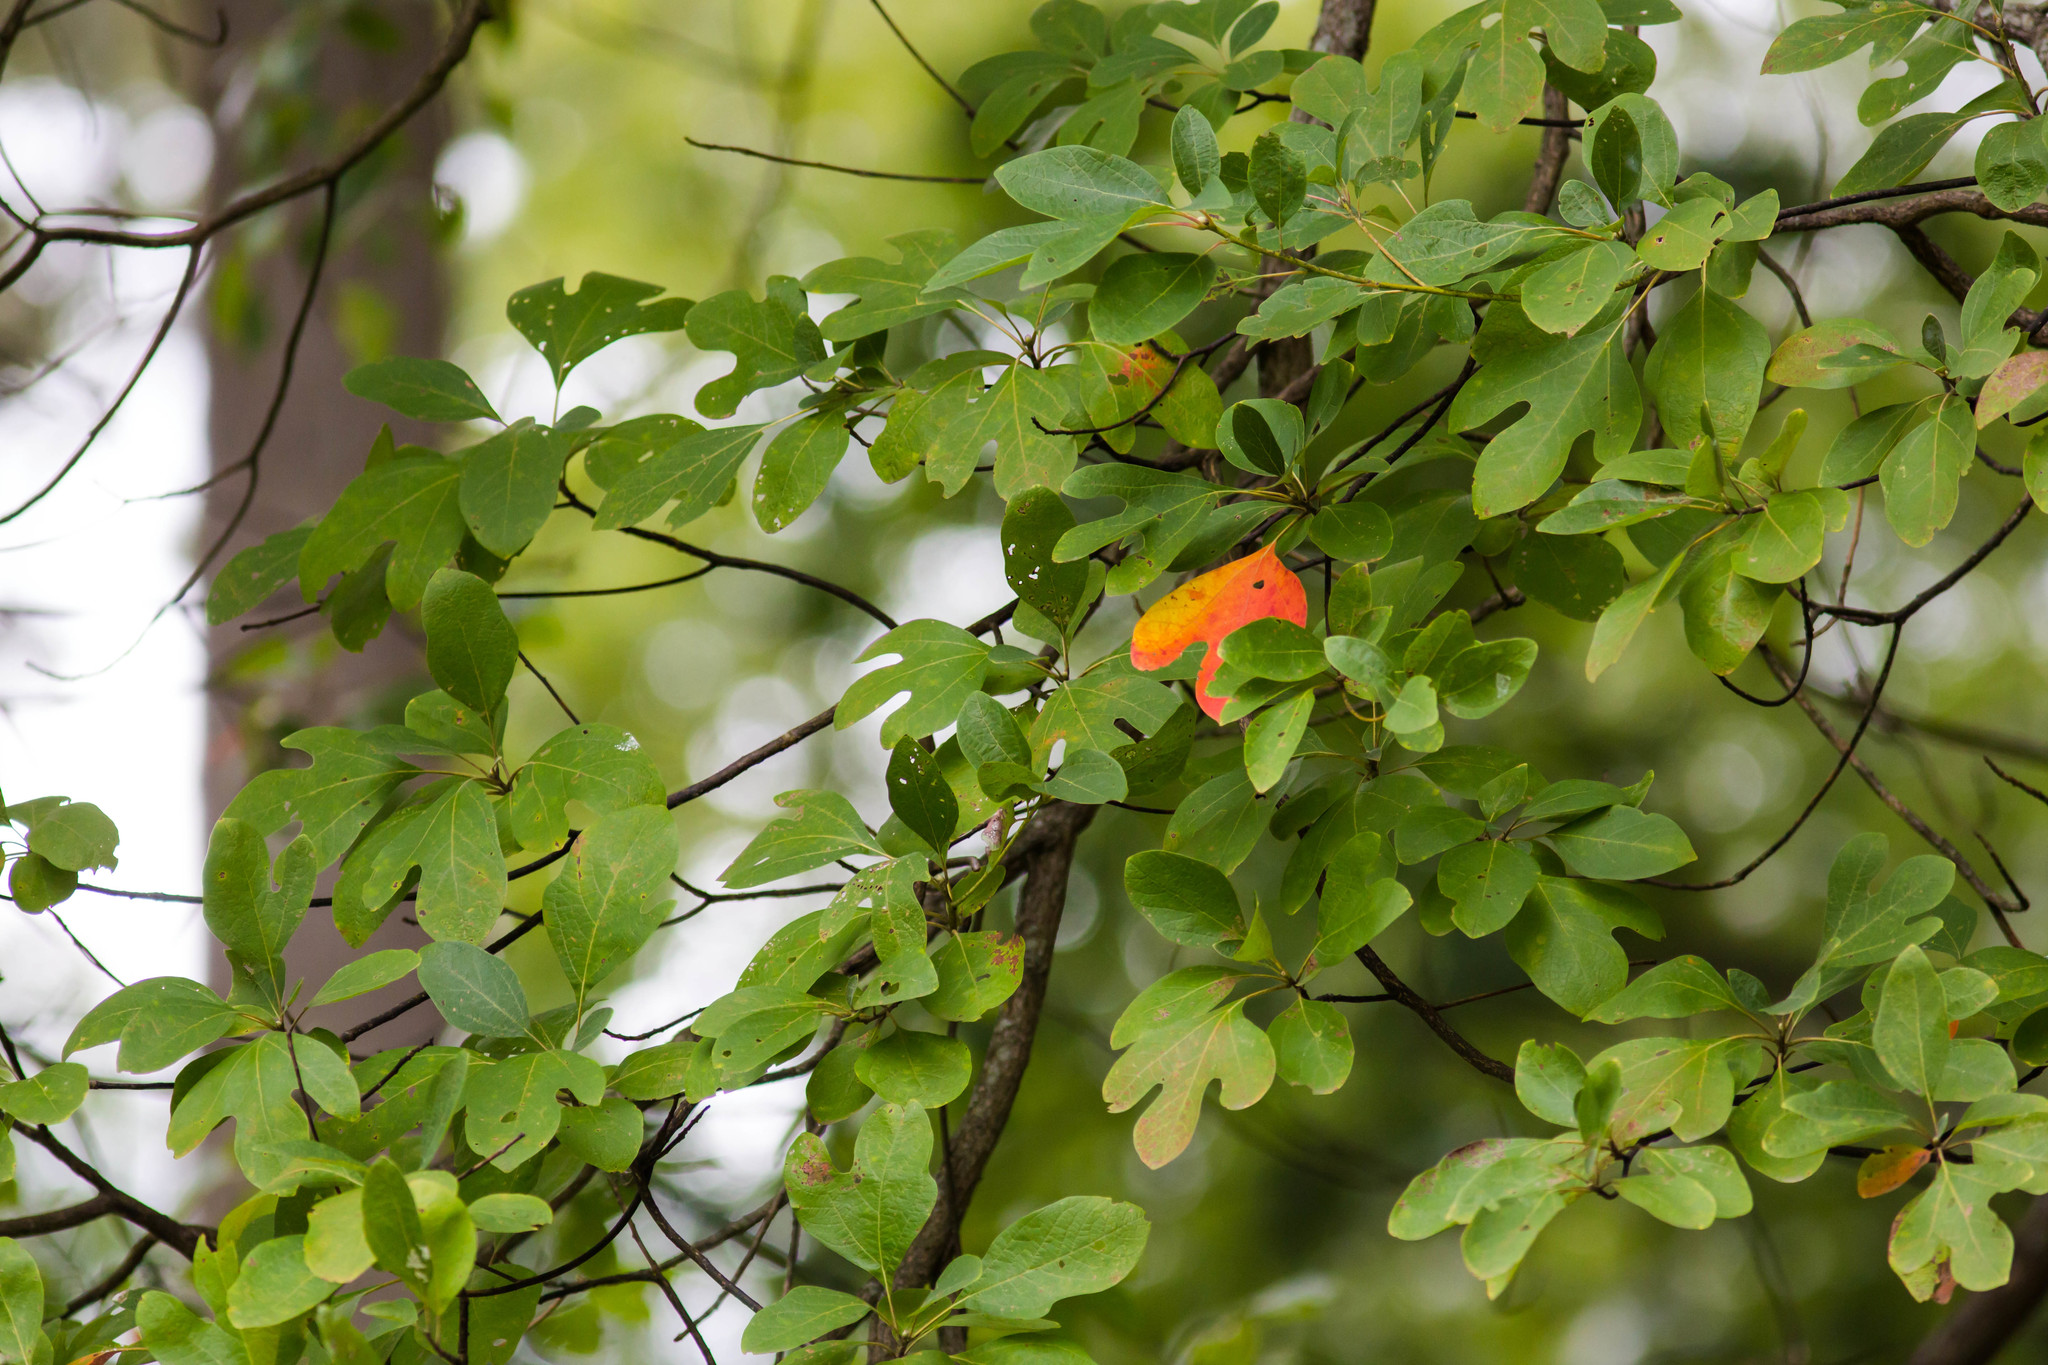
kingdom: Plantae
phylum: Tracheophyta
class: Magnoliopsida
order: Laurales
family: Lauraceae
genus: Sassafras
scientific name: Sassafras albidum
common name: Sassafras
